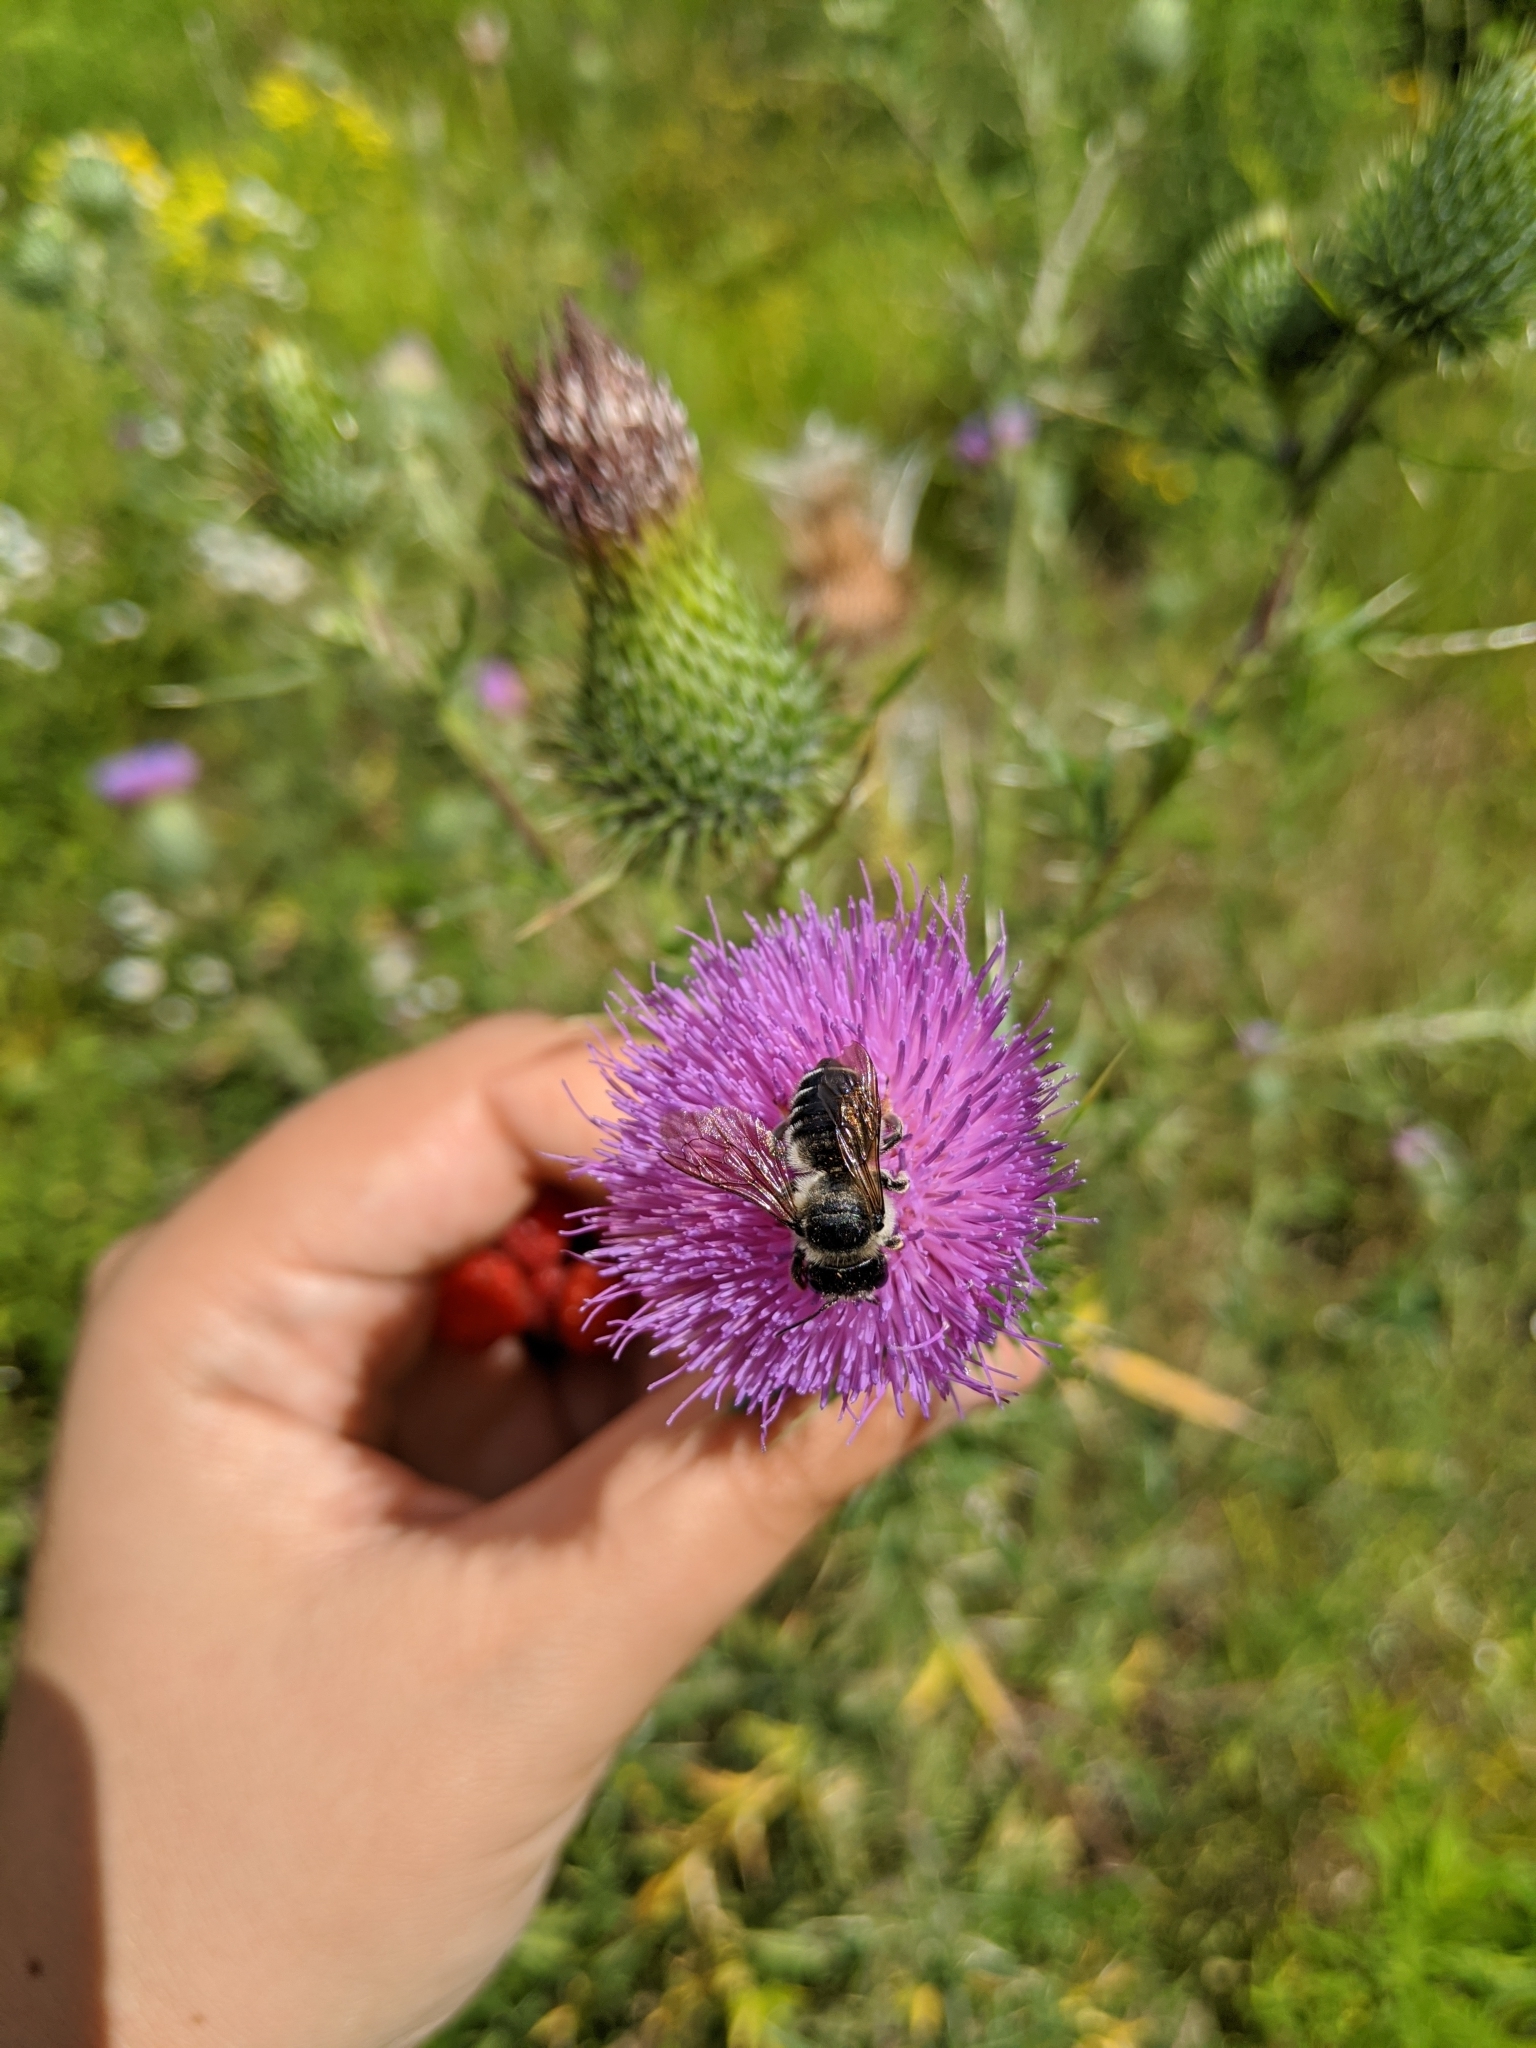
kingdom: Animalia
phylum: Arthropoda
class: Insecta
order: Hymenoptera
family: Megachilidae
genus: Megachile
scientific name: Megachile
